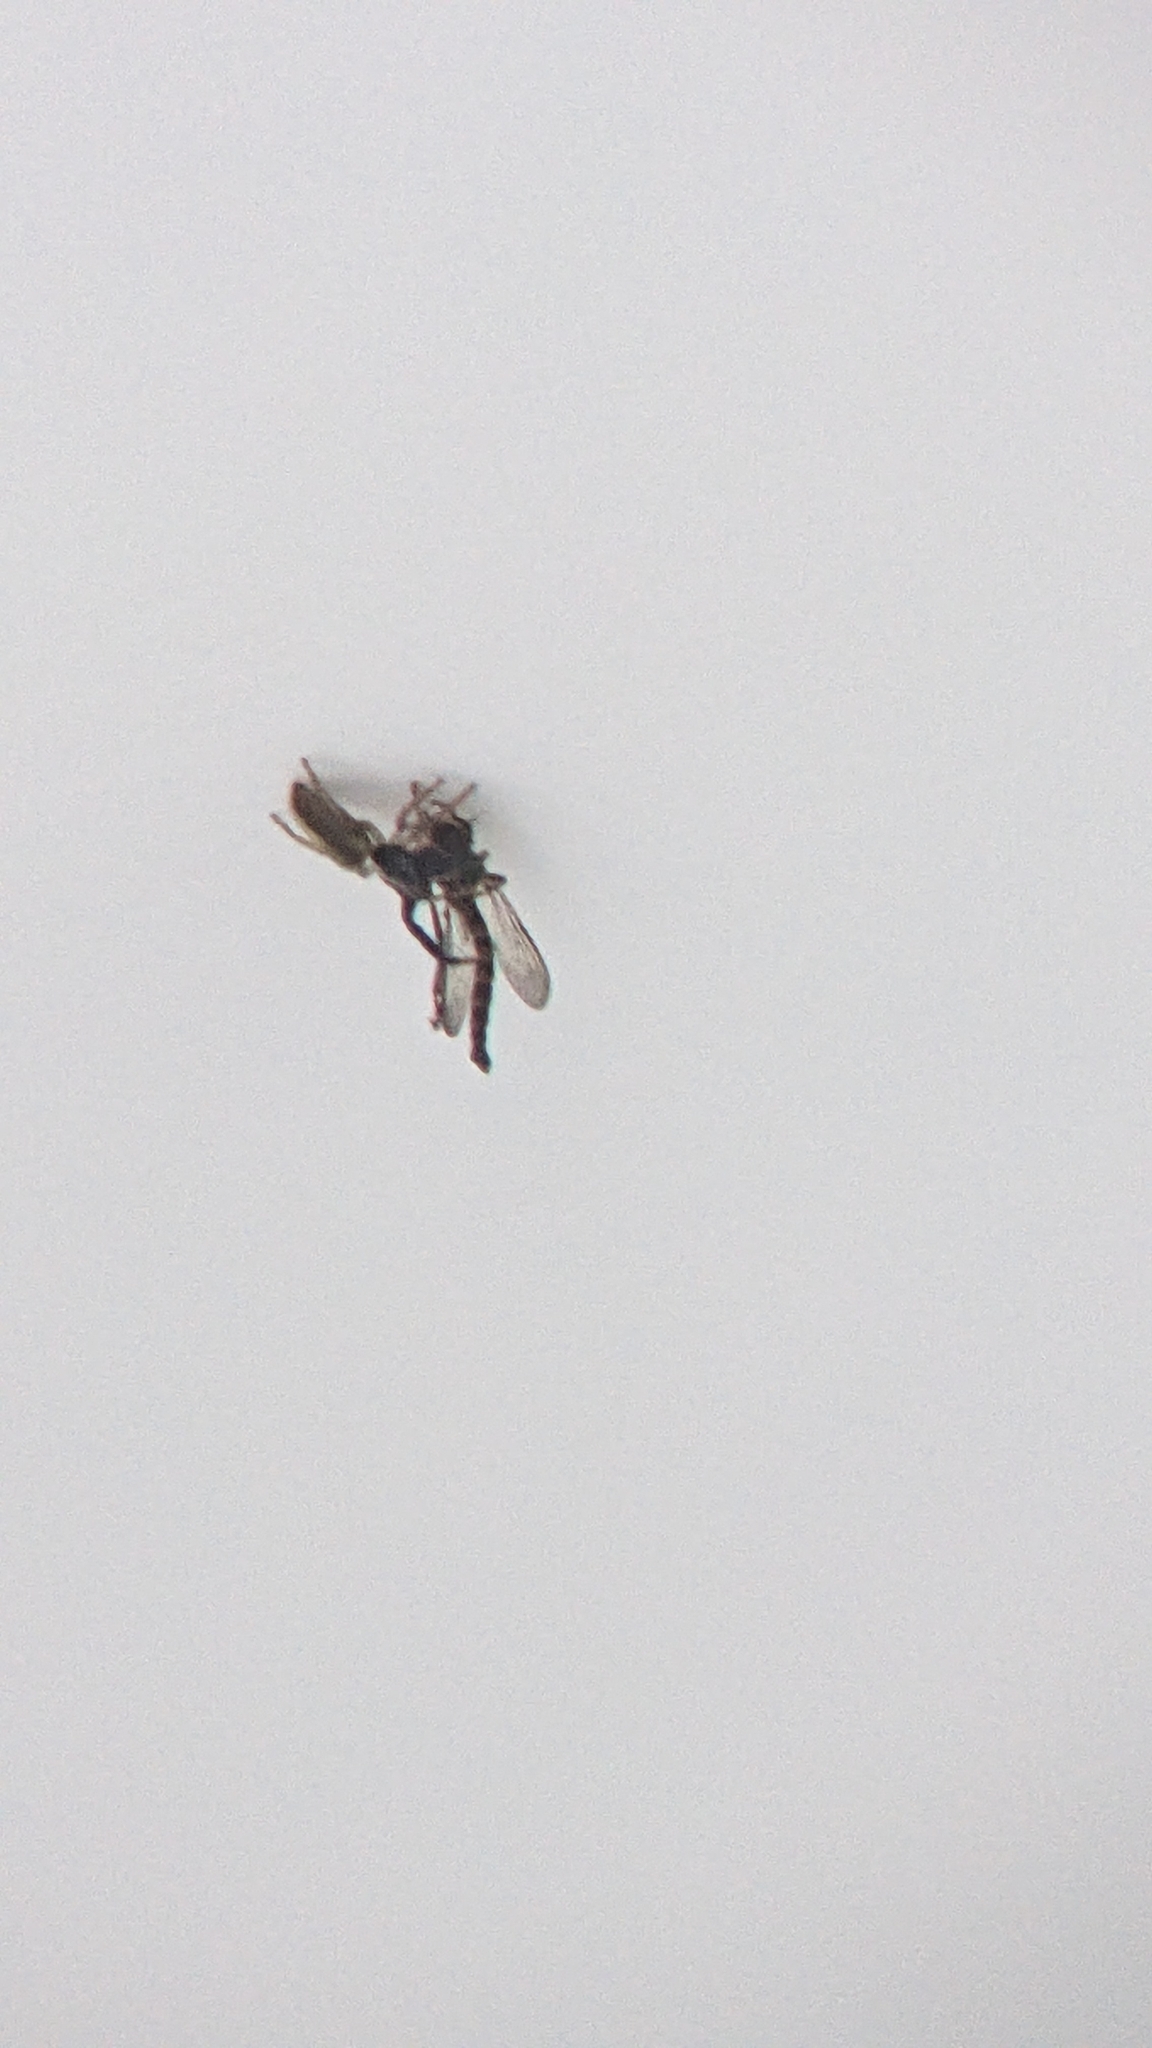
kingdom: Animalia
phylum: Arthropoda
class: Arachnida
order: Araneae
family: Salticidae
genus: Trite
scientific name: Trite planiceps
